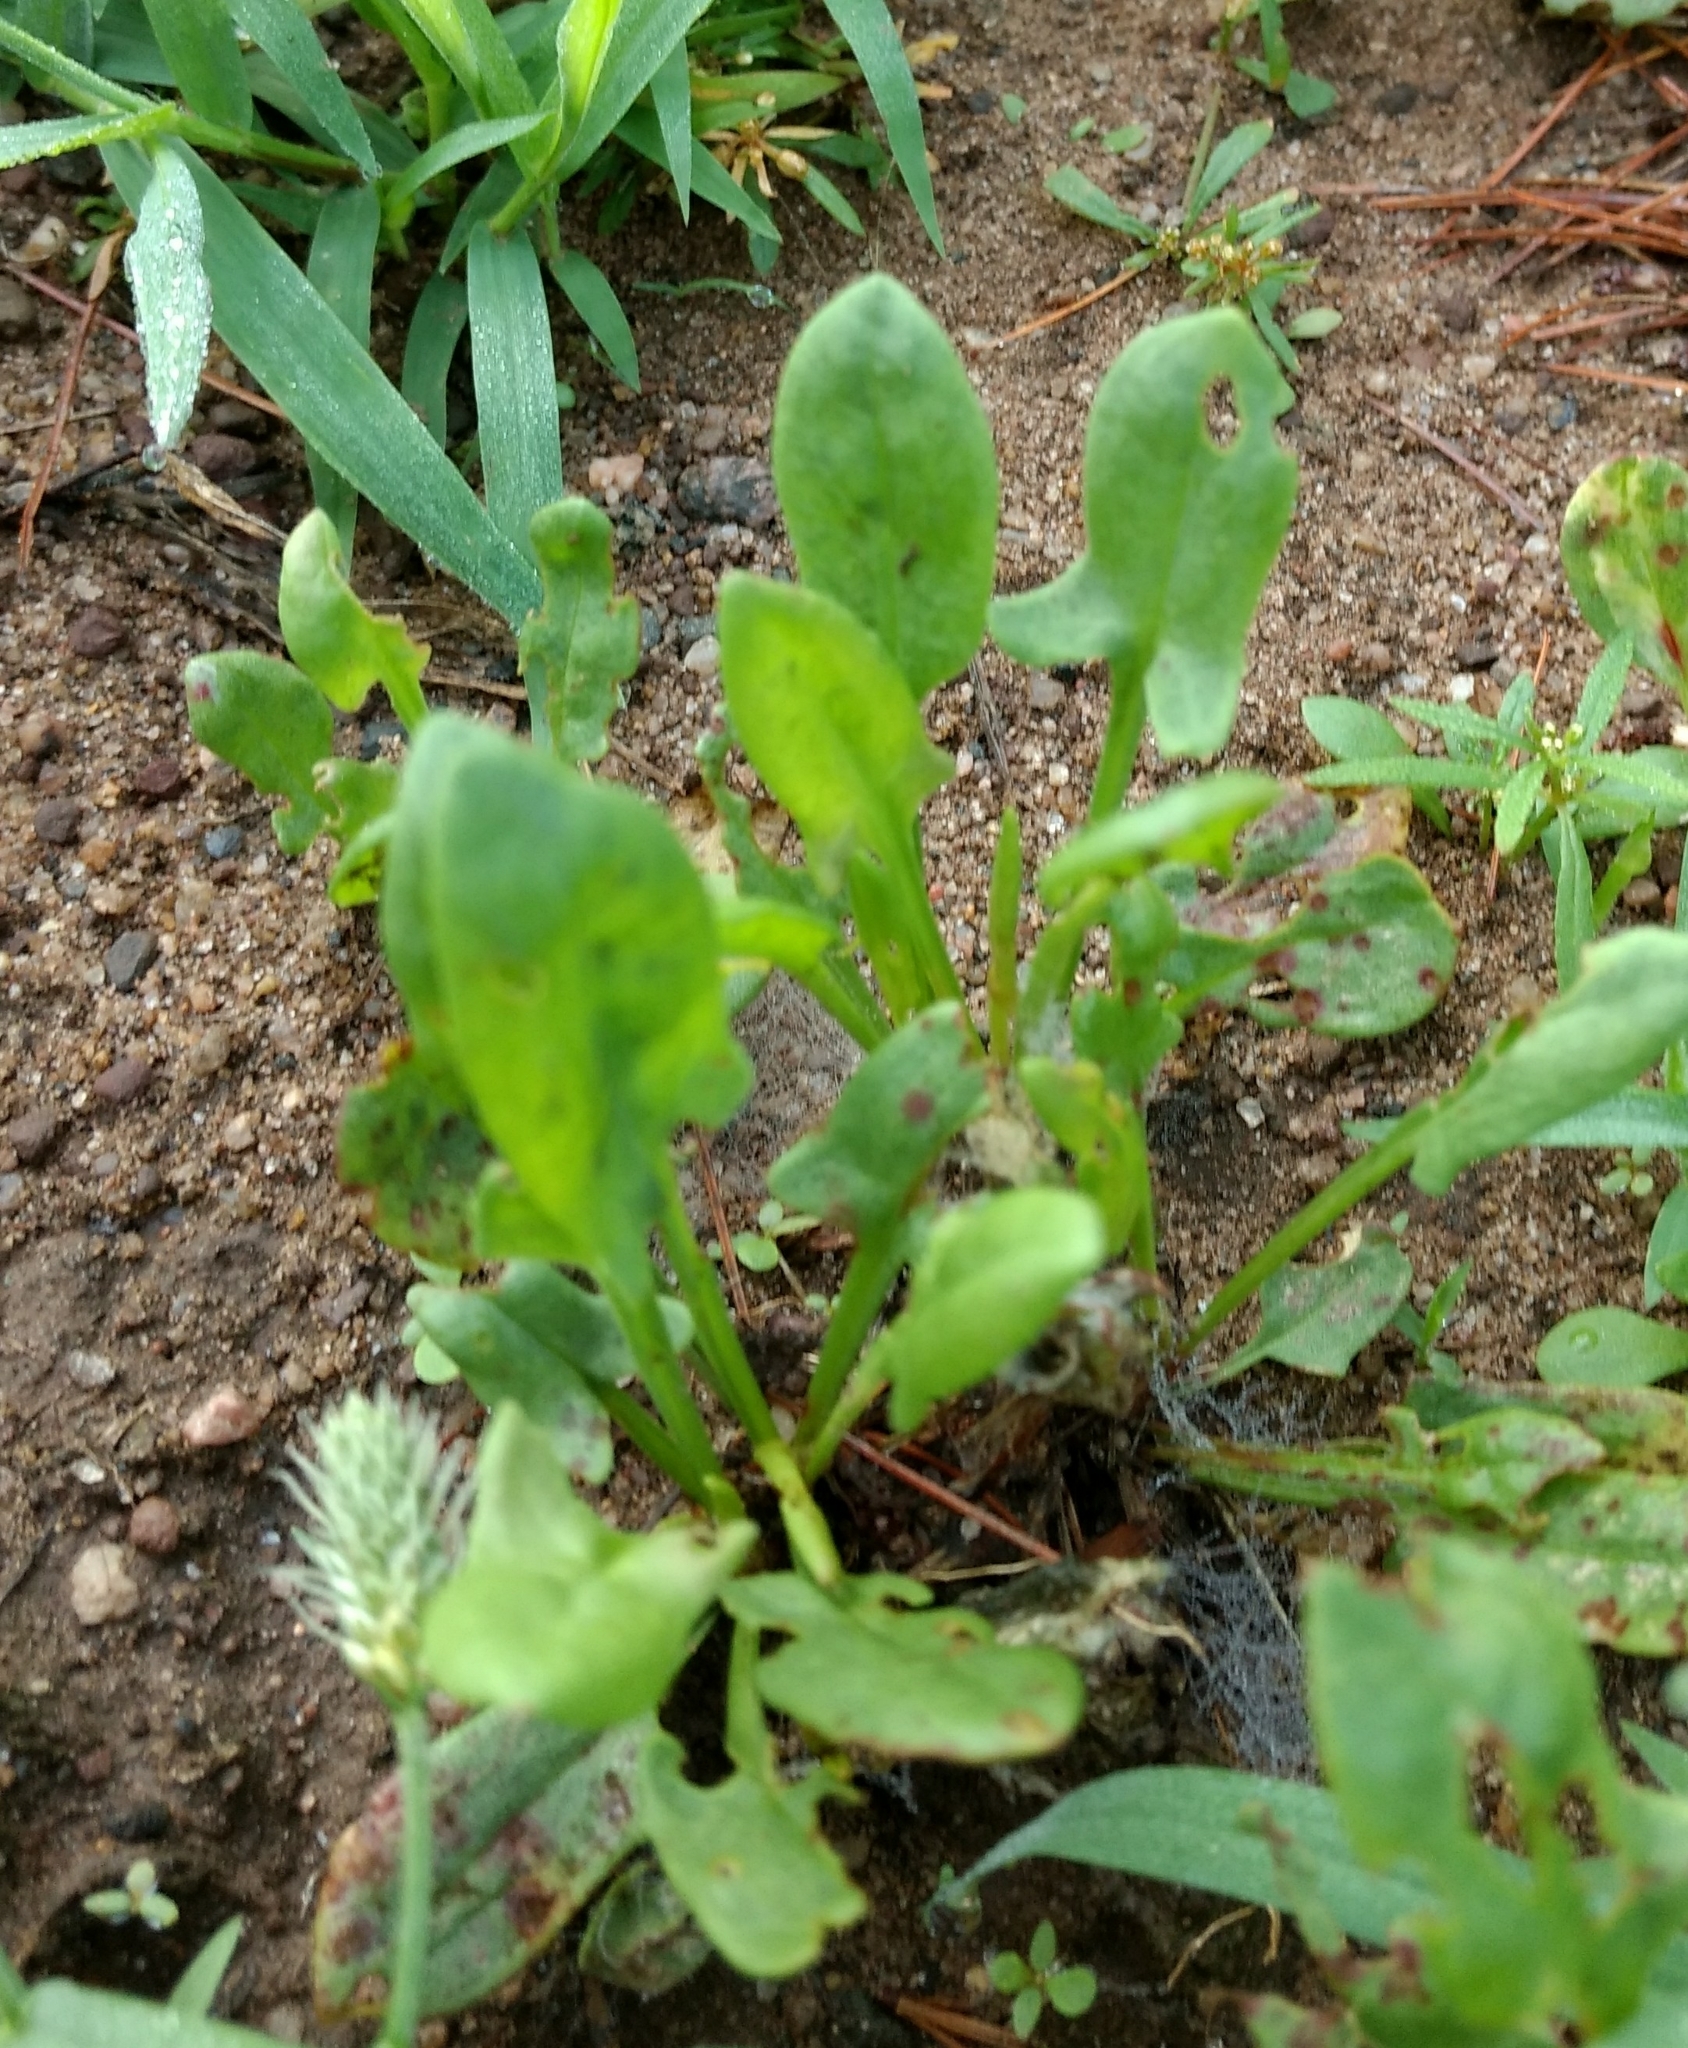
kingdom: Plantae
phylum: Tracheophyta
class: Magnoliopsida
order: Caryophyllales
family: Polygonaceae
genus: Rumex
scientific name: Rumex acetosella
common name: Common sheep sorrel
